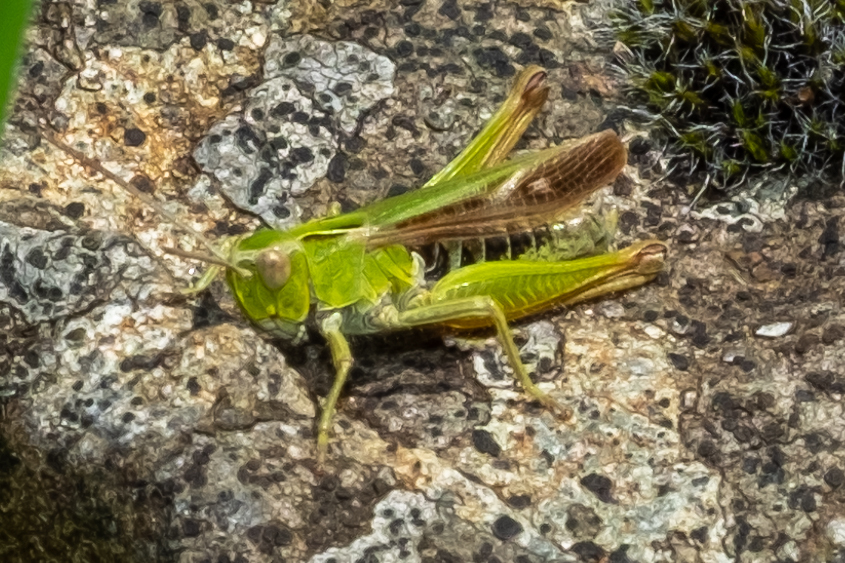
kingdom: Animalia
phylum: Arthropoda
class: Insecta
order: Orthoptera
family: Acrididae
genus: Omocestus
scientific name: Omocestus viridulus
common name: Common green grasshopper
